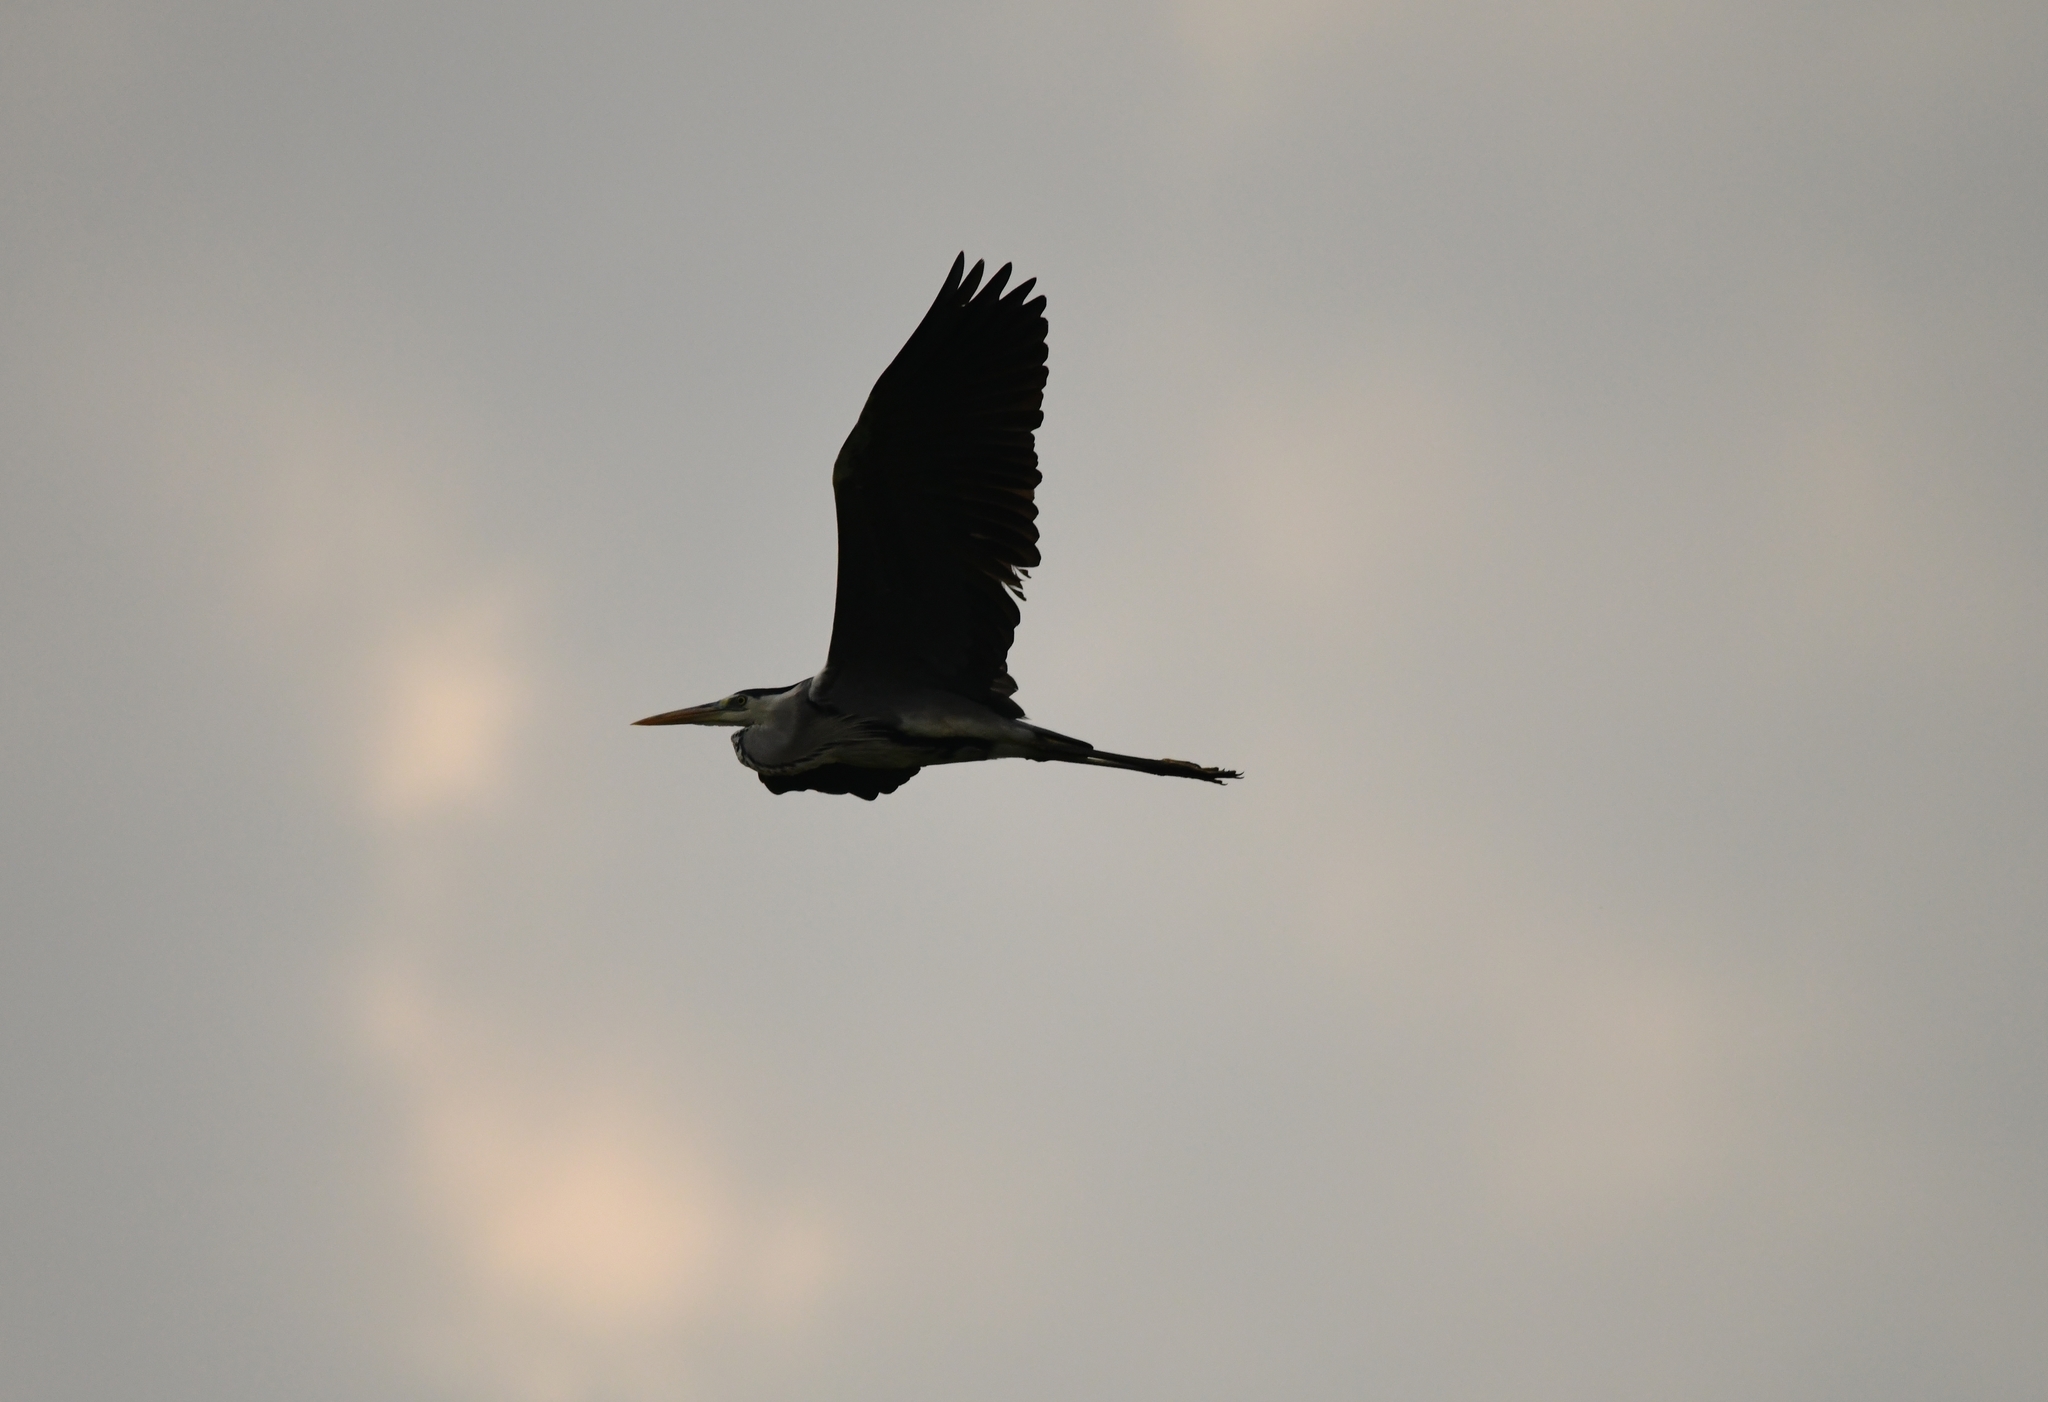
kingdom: Animalia
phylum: Chordata
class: Aves
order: Pelecaniformes
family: Ardeidae
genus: Ardea
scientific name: Ardea cinerea
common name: Grey heron
